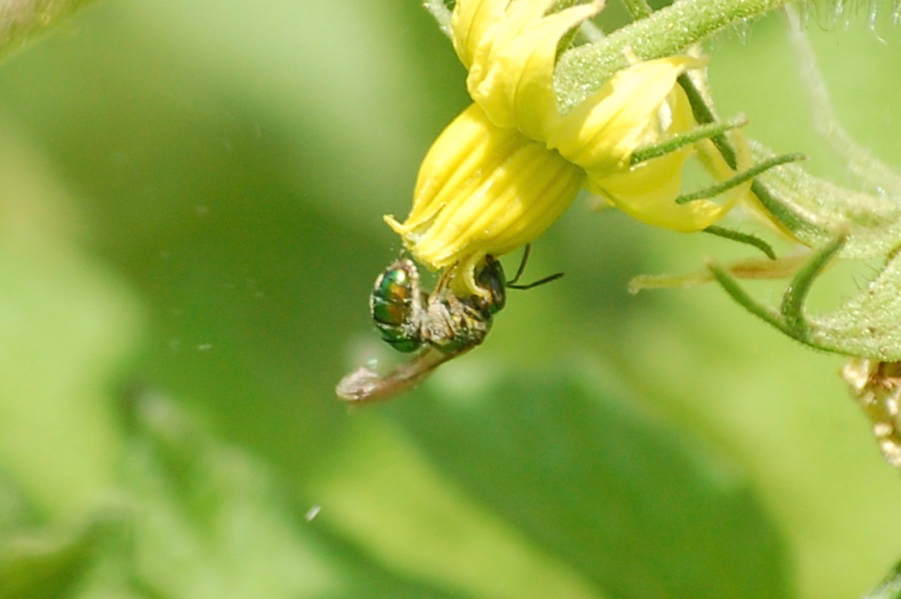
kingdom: Animalia
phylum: Arthropoda
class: Insecta
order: Hymenoptera
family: Halictidae
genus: Augochlora
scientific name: Augochlora pura
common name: Pure green sweat bee
